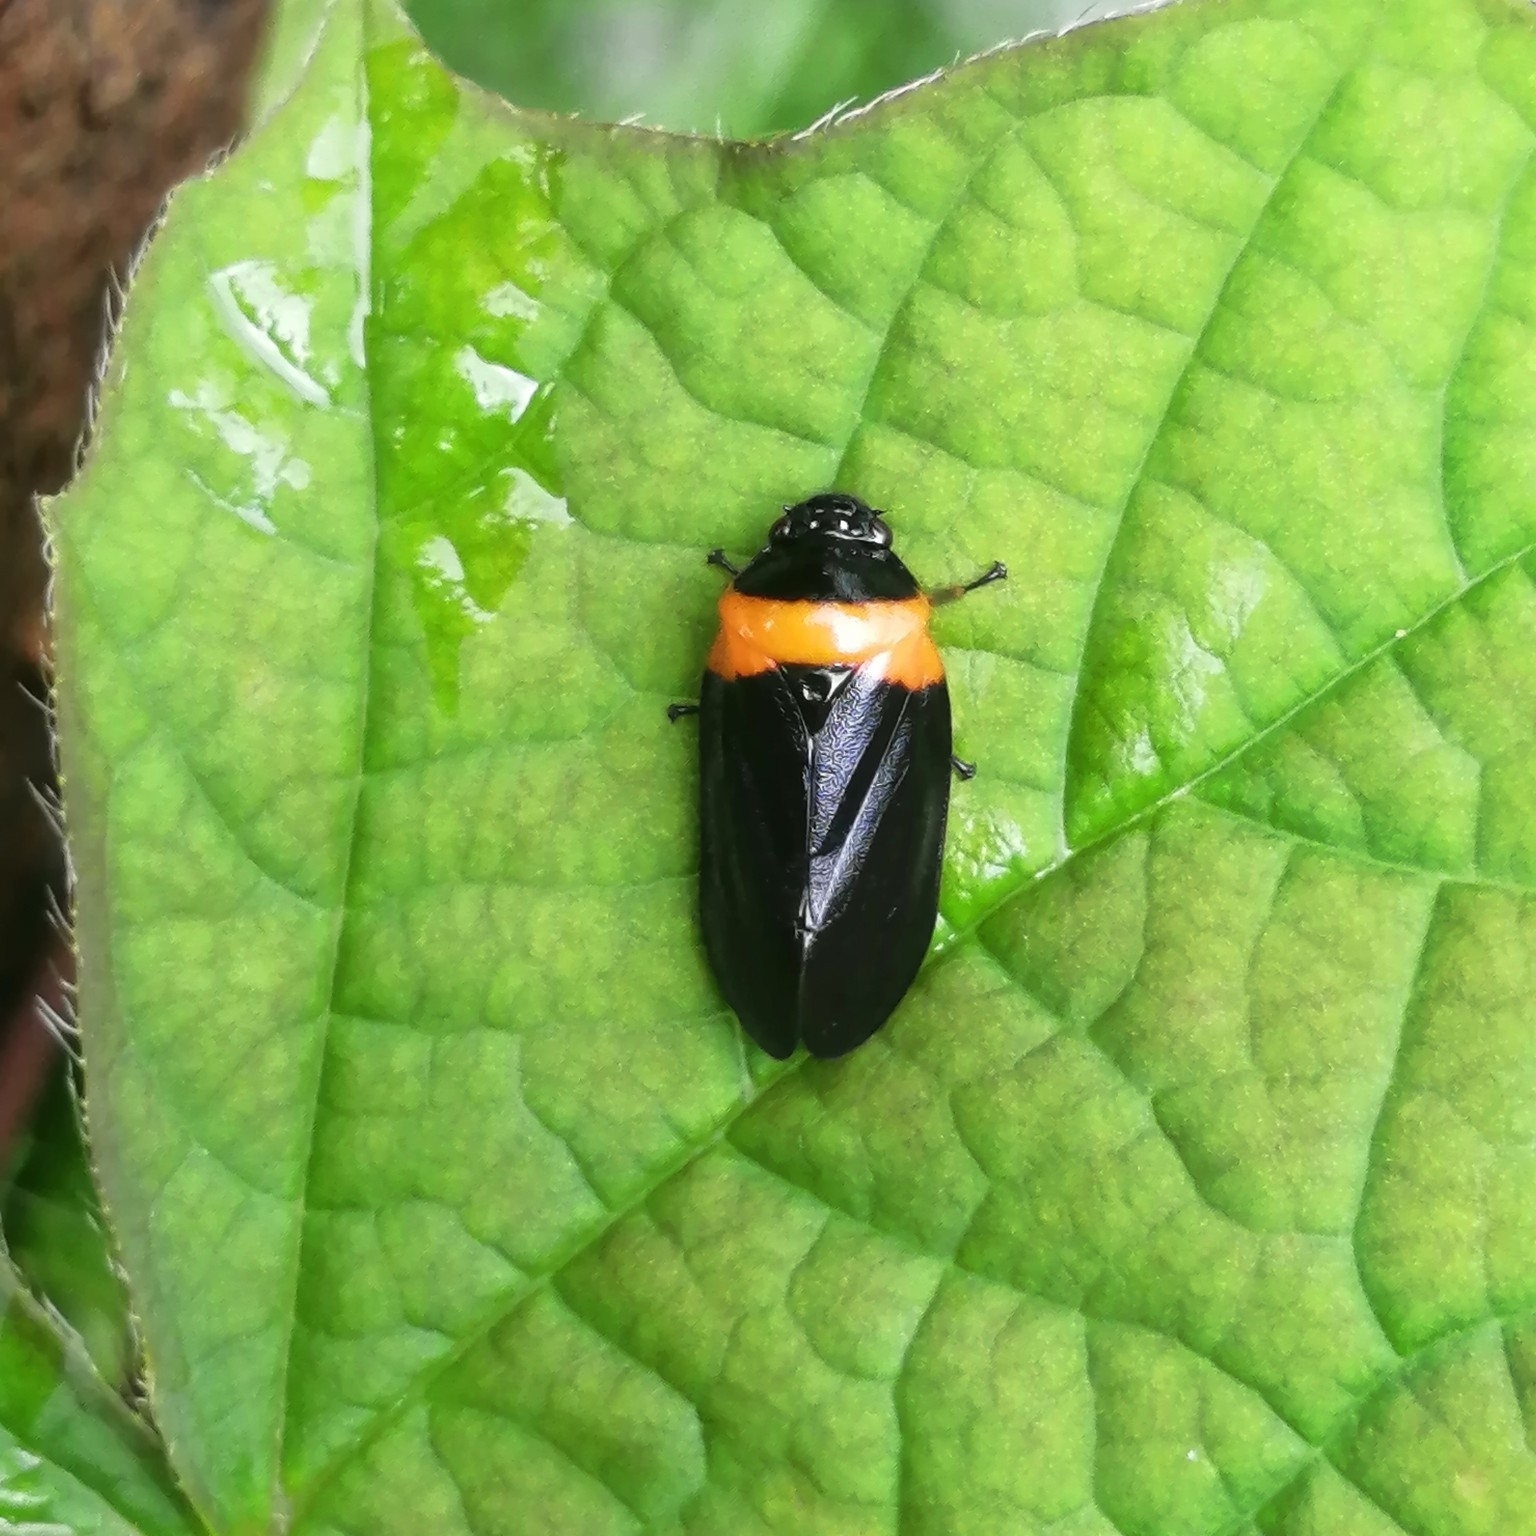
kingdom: Animalia
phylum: Arthropoda
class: Insecta
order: Hemiptera
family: Cercopidae
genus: Phymatostetha
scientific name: Phymatostetha deschampsi
